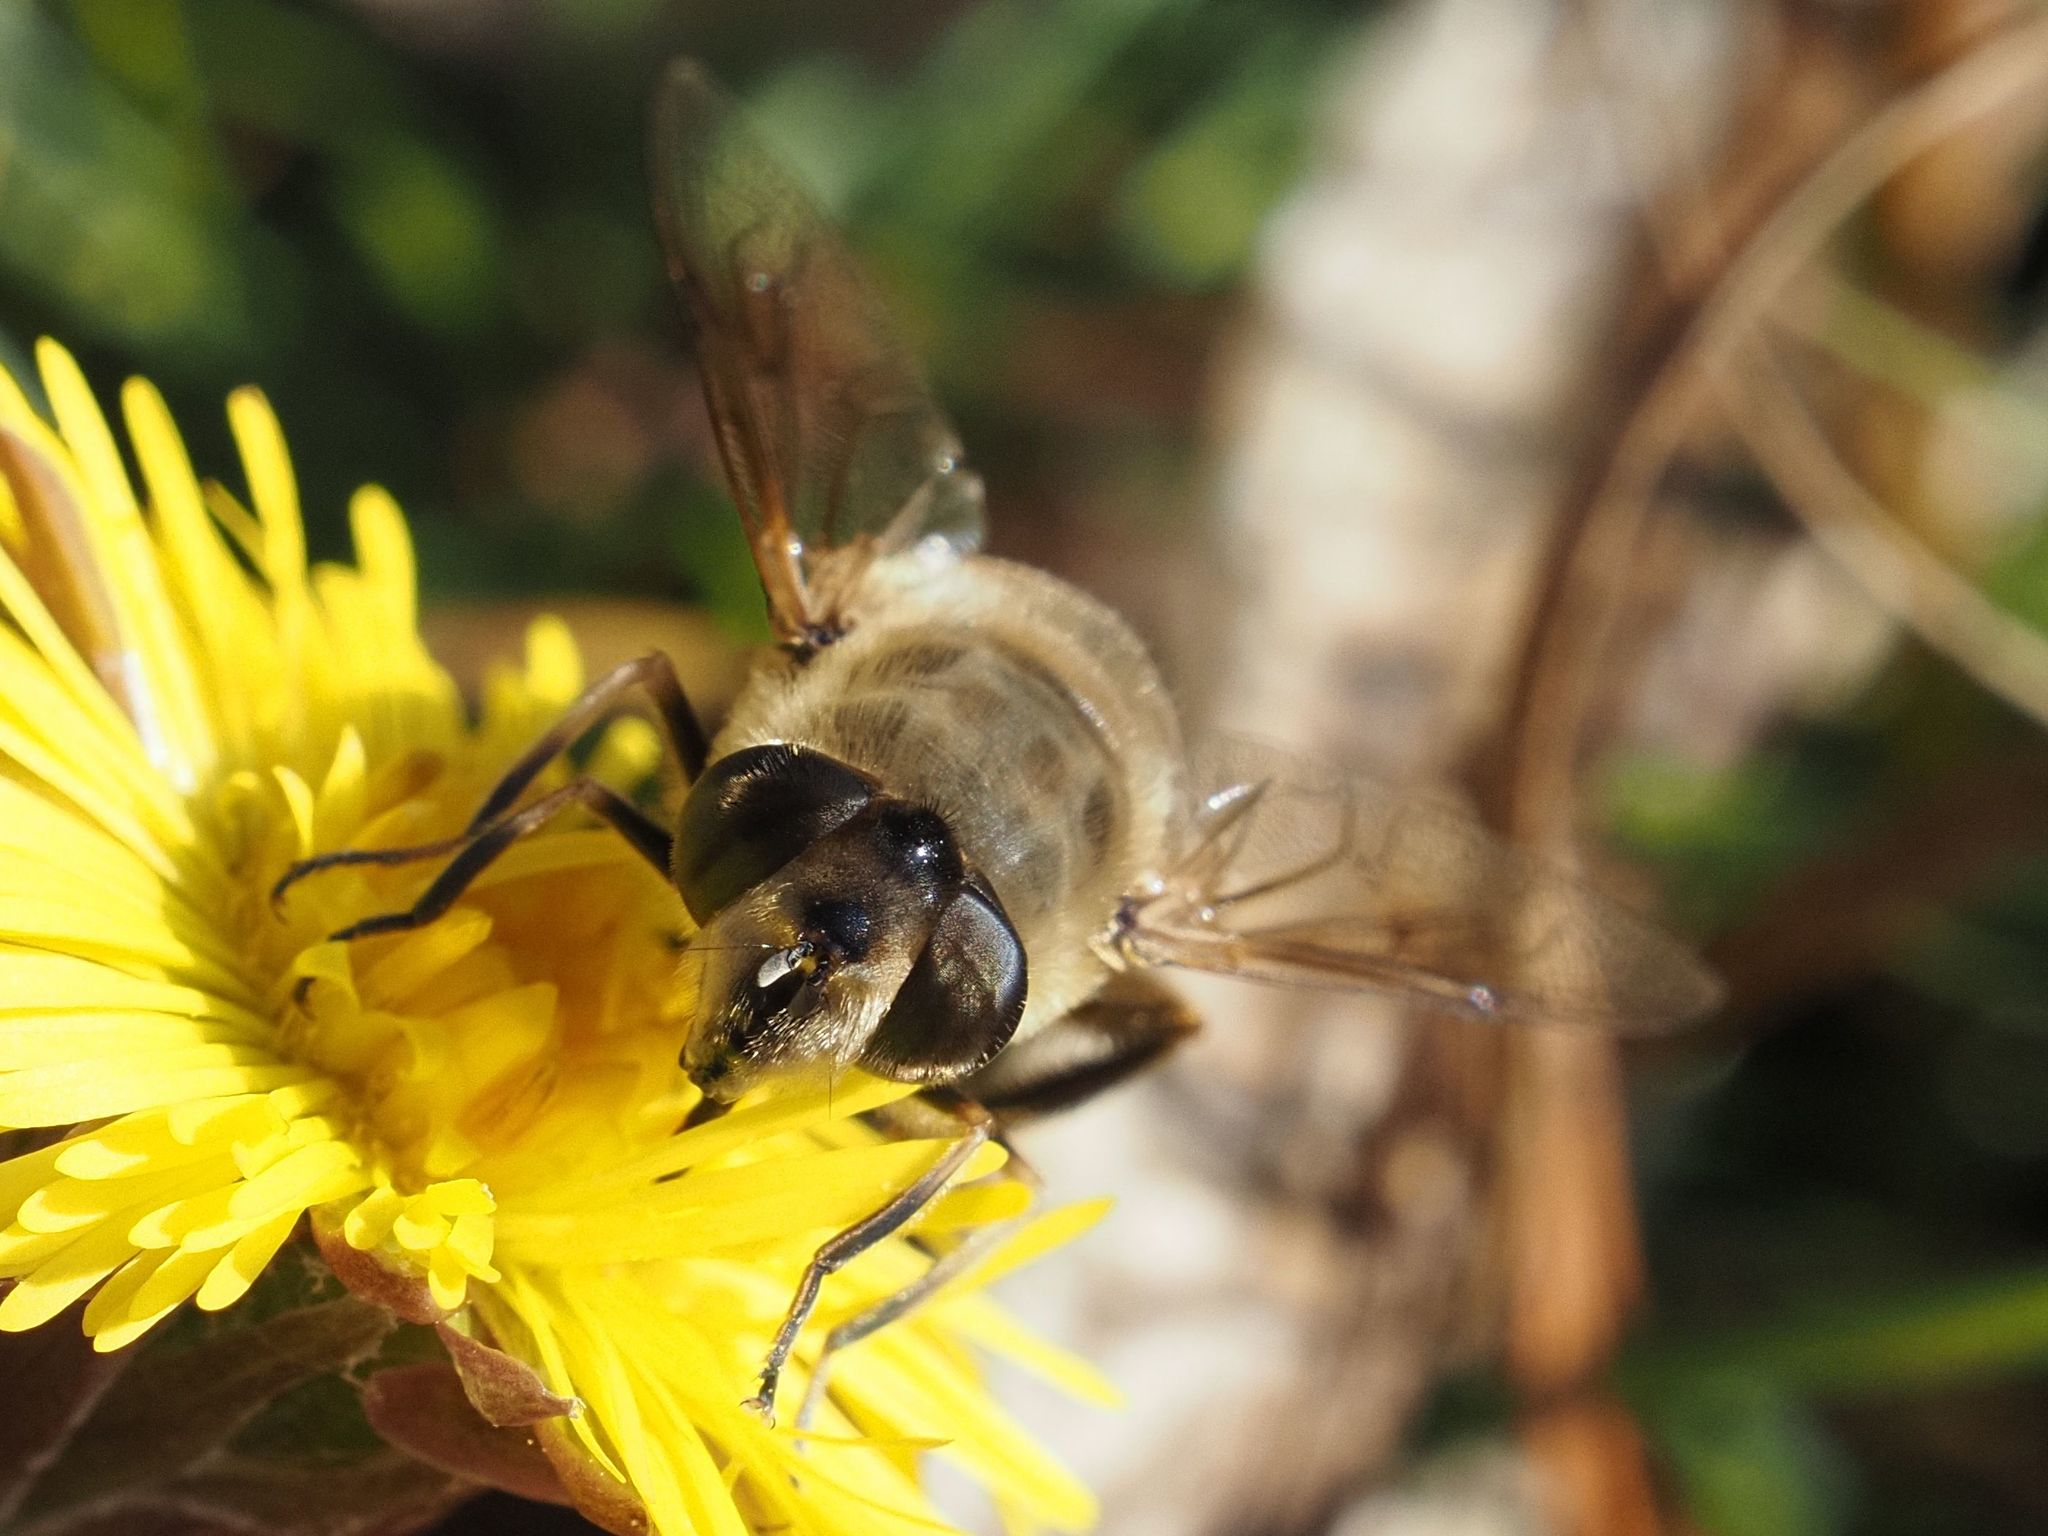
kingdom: Animalia
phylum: Arthropoda
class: Insecta
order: Diptera
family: Syrphidae
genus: Eristalis
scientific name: Eristalis tenax
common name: Drone fly
